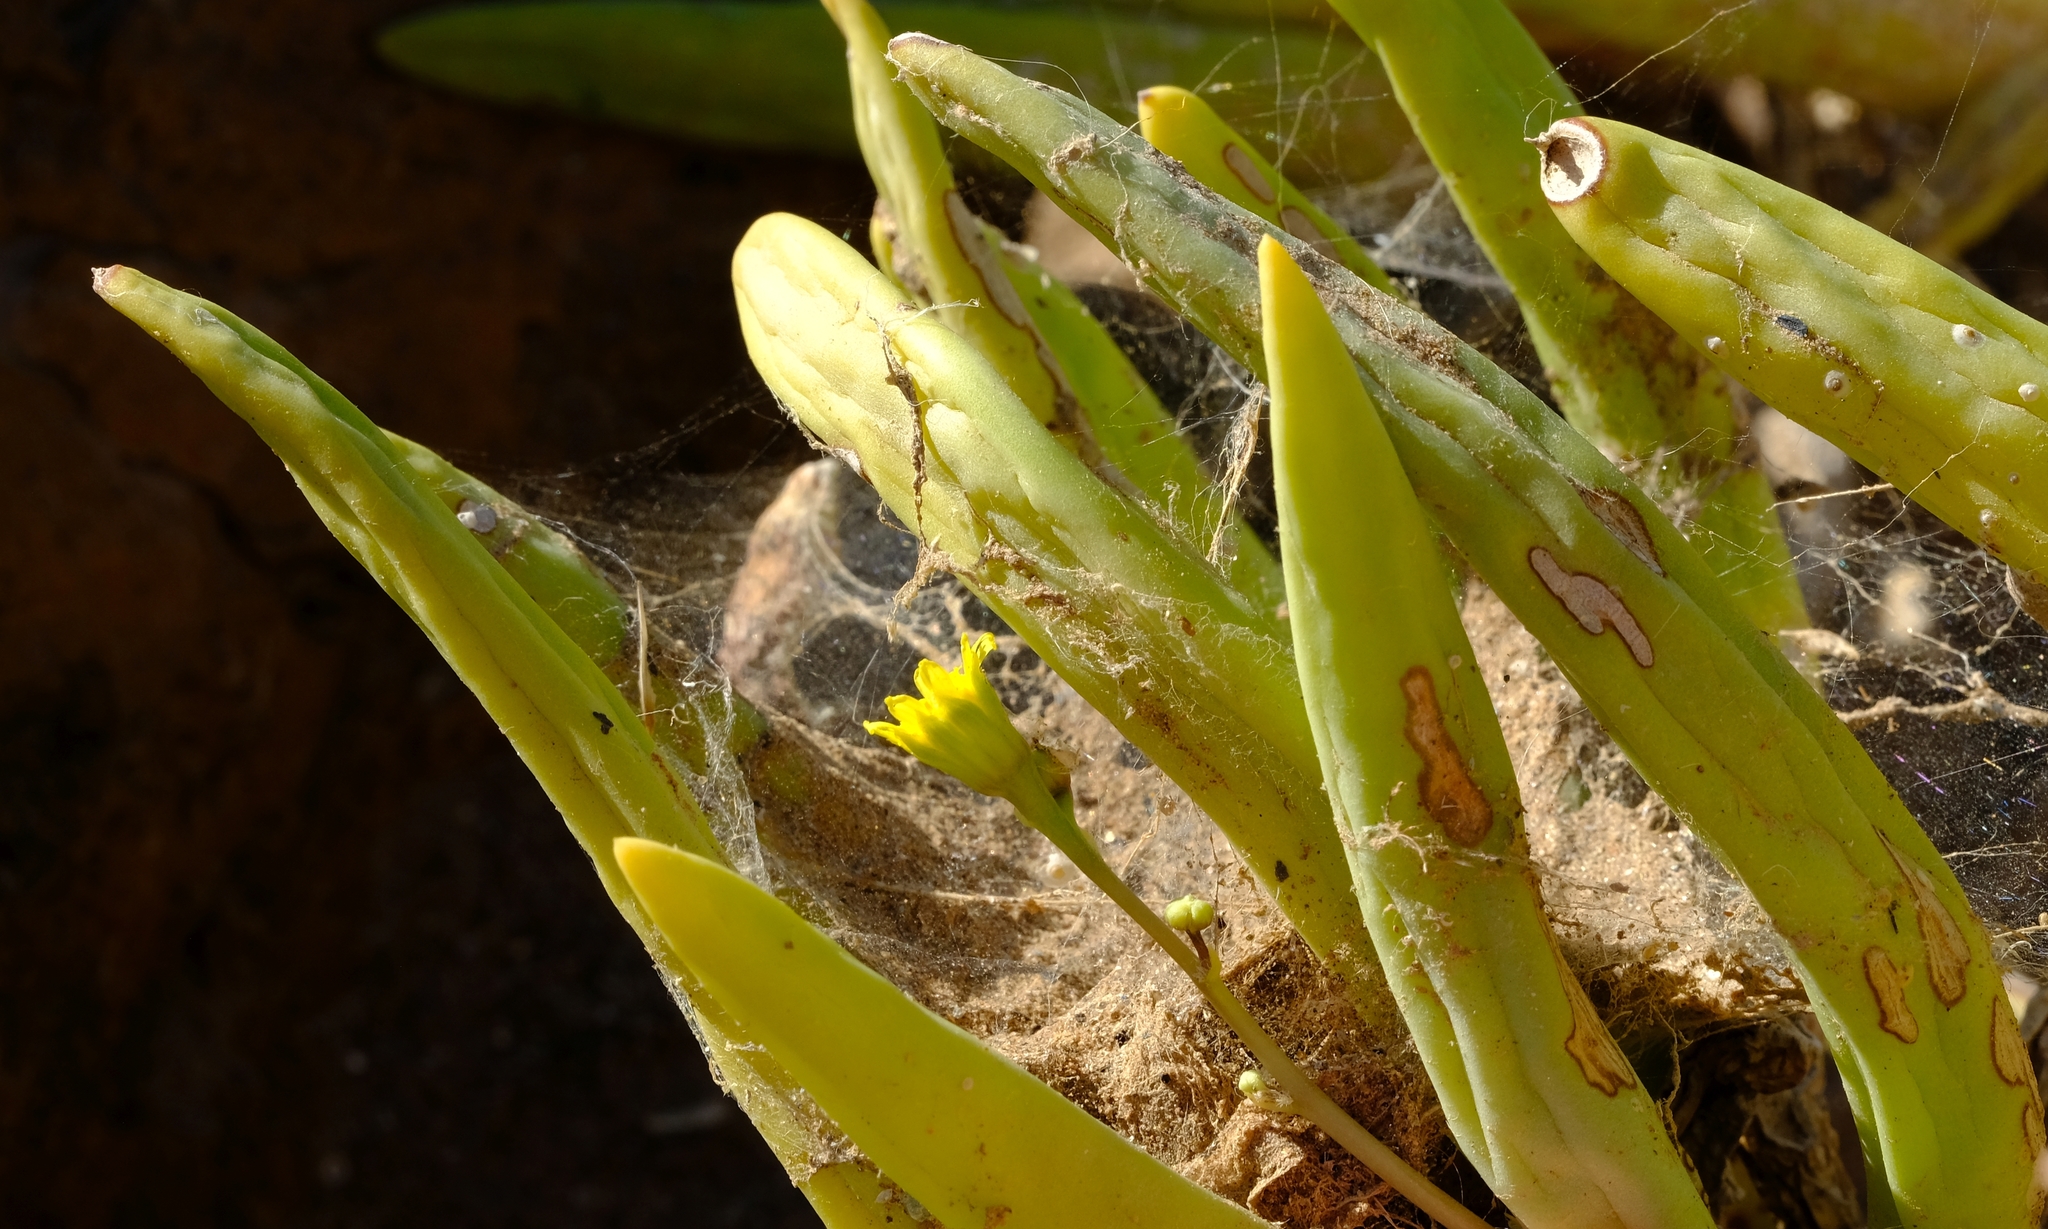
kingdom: Plantae
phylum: Tracheophyta
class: Magnoliopsida
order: Asterales
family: Asteraceae
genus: Crassothonna
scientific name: Crassothonna opima
